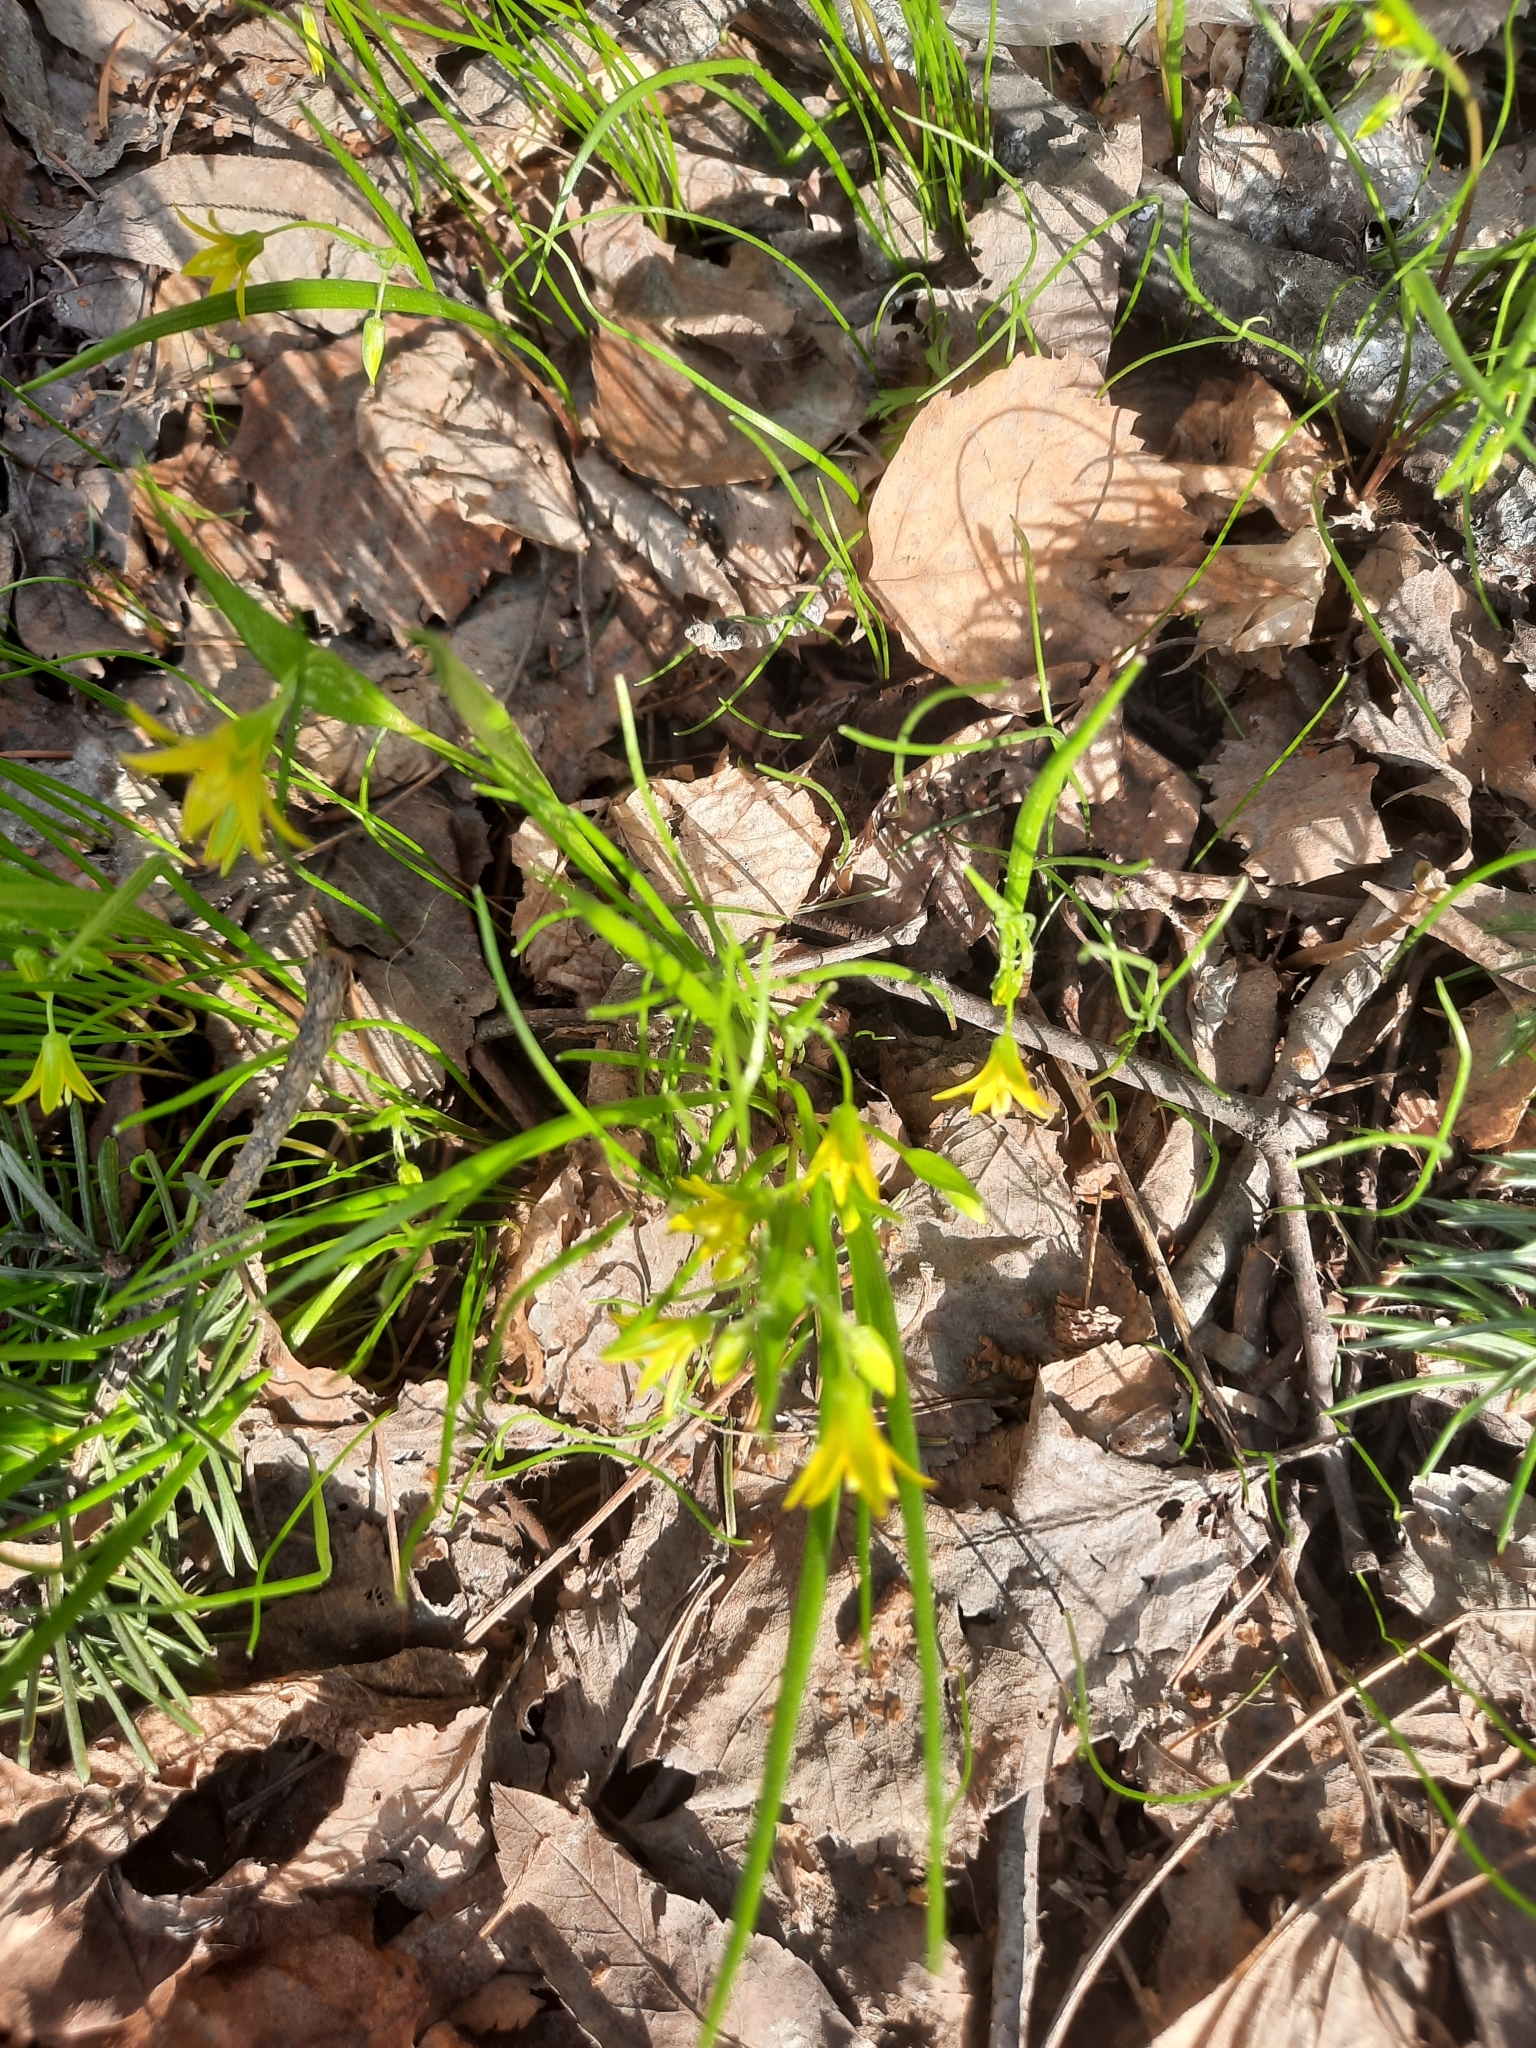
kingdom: Plantae
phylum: Tracheophyta
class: Liliopsida
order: Liliales
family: Liliaceae
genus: Gagea
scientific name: Gagea minima
